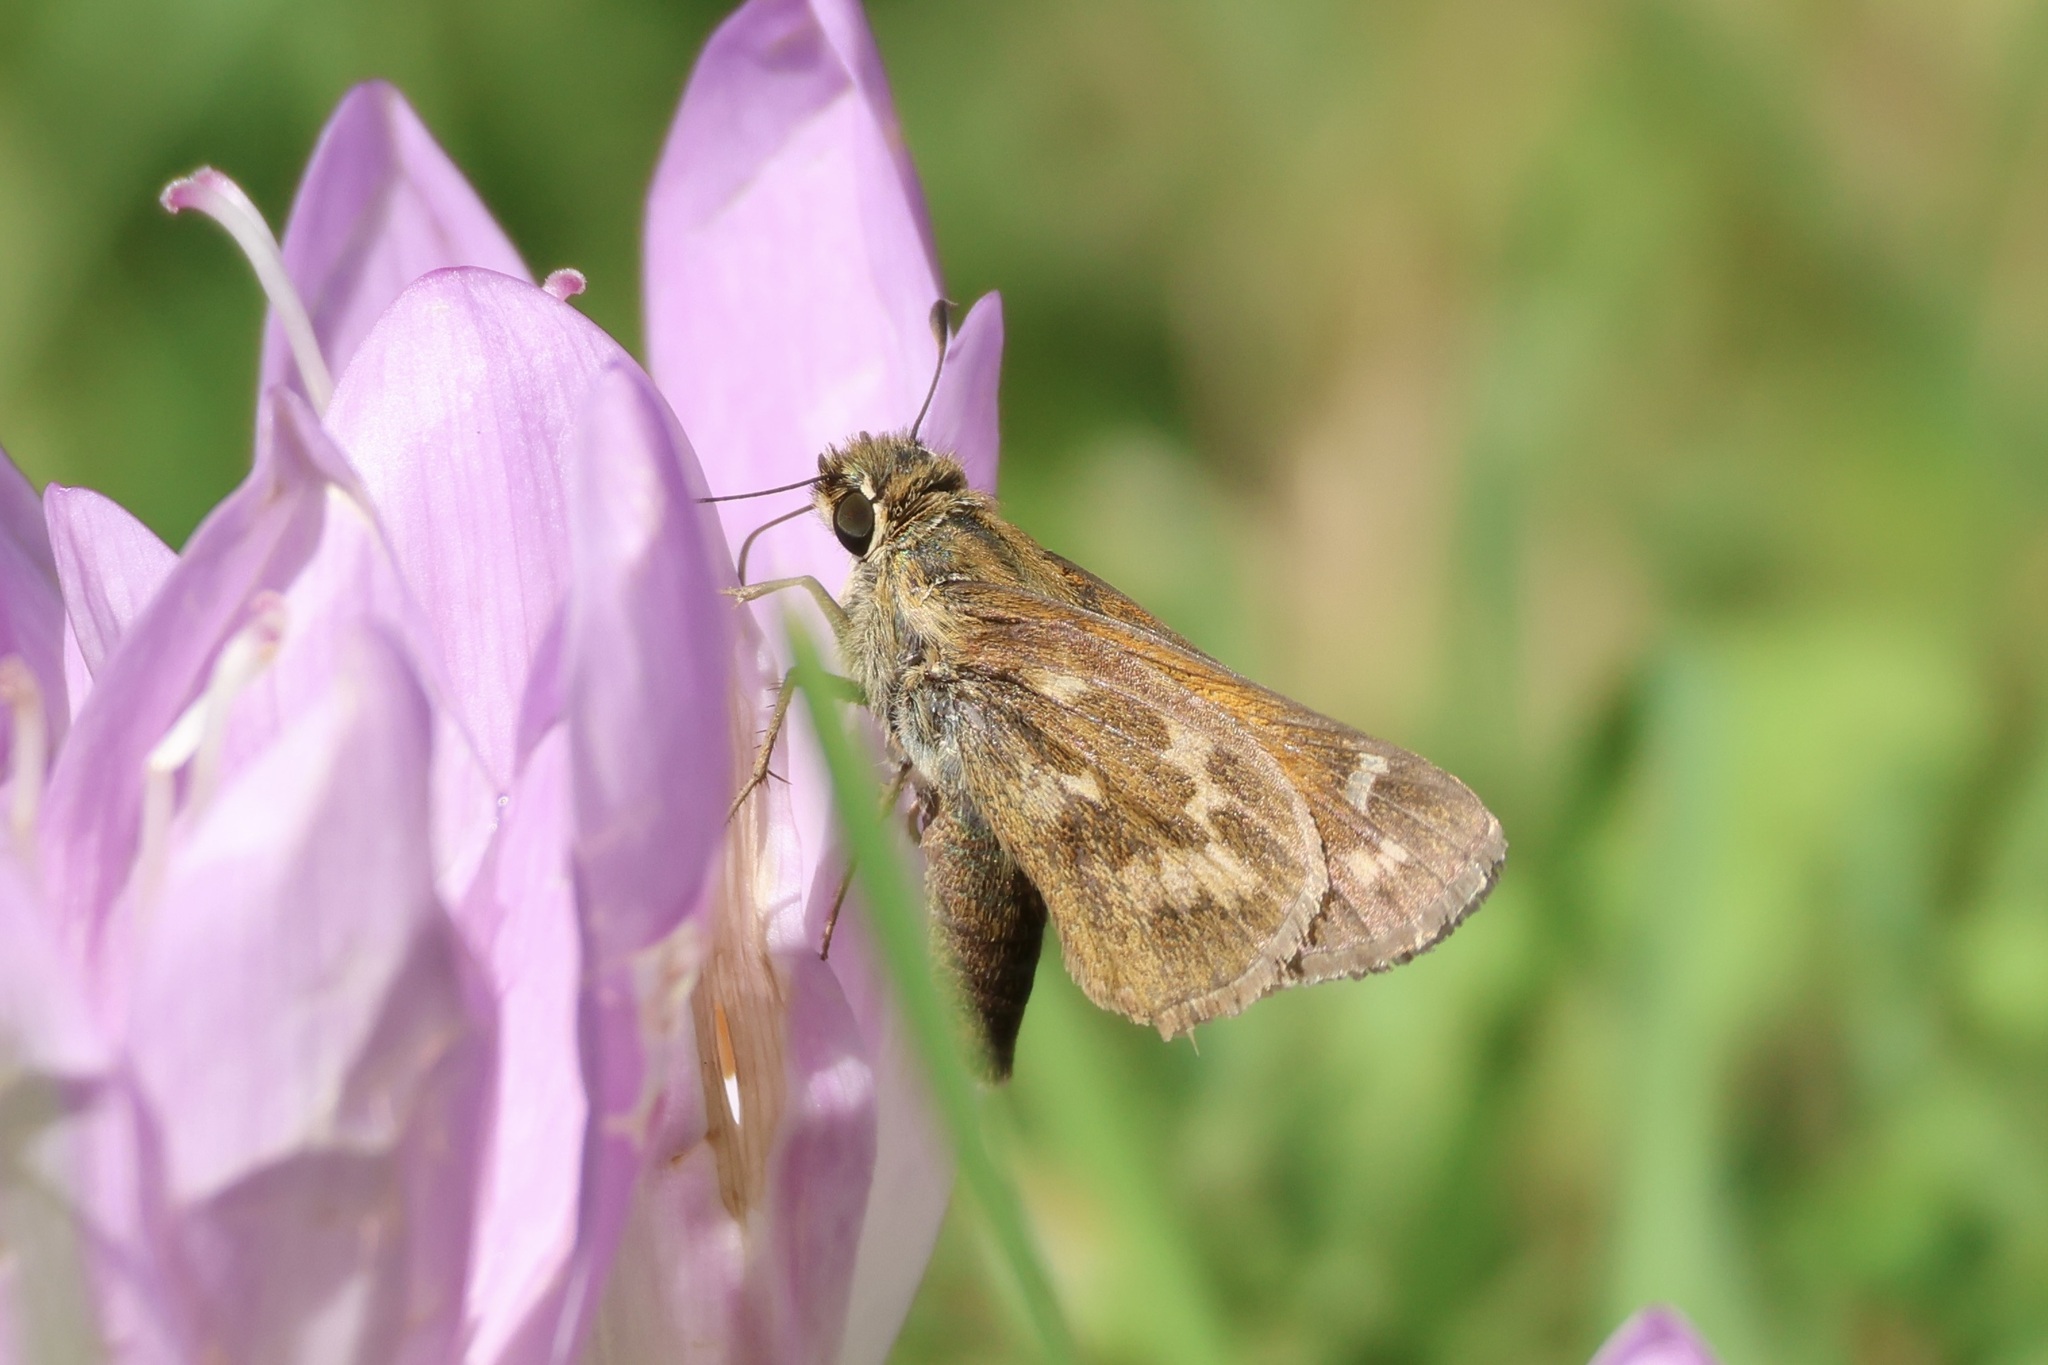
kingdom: Animalia
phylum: Arthropoda
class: Insecta
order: Lepidoptera
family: Hesperiidae
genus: Atalopedes
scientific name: Atalopedes
